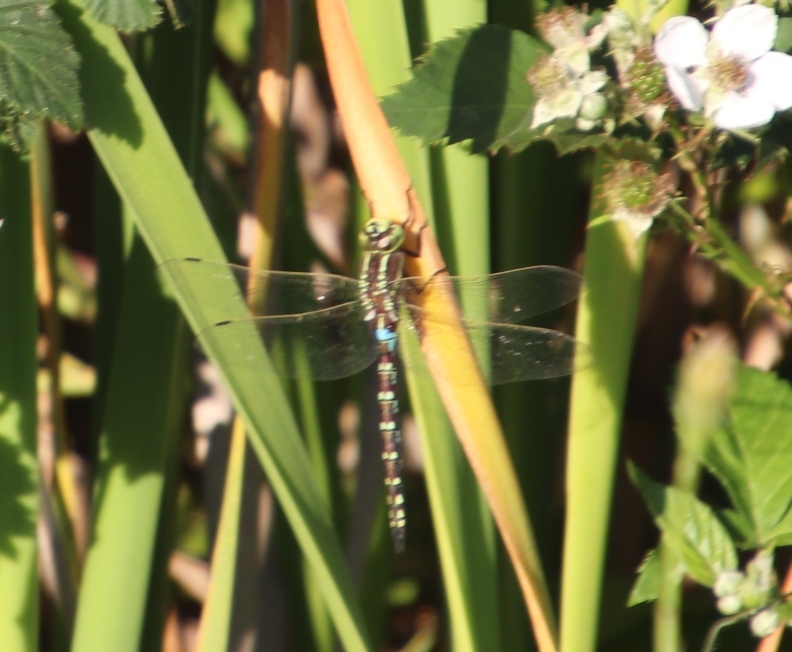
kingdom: Animalia
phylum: Arthropoda
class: Insecta
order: Odonata
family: Aeshnidae
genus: Zosteraeschna
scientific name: Zosteraeschna minuscula
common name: Friendly hawker
